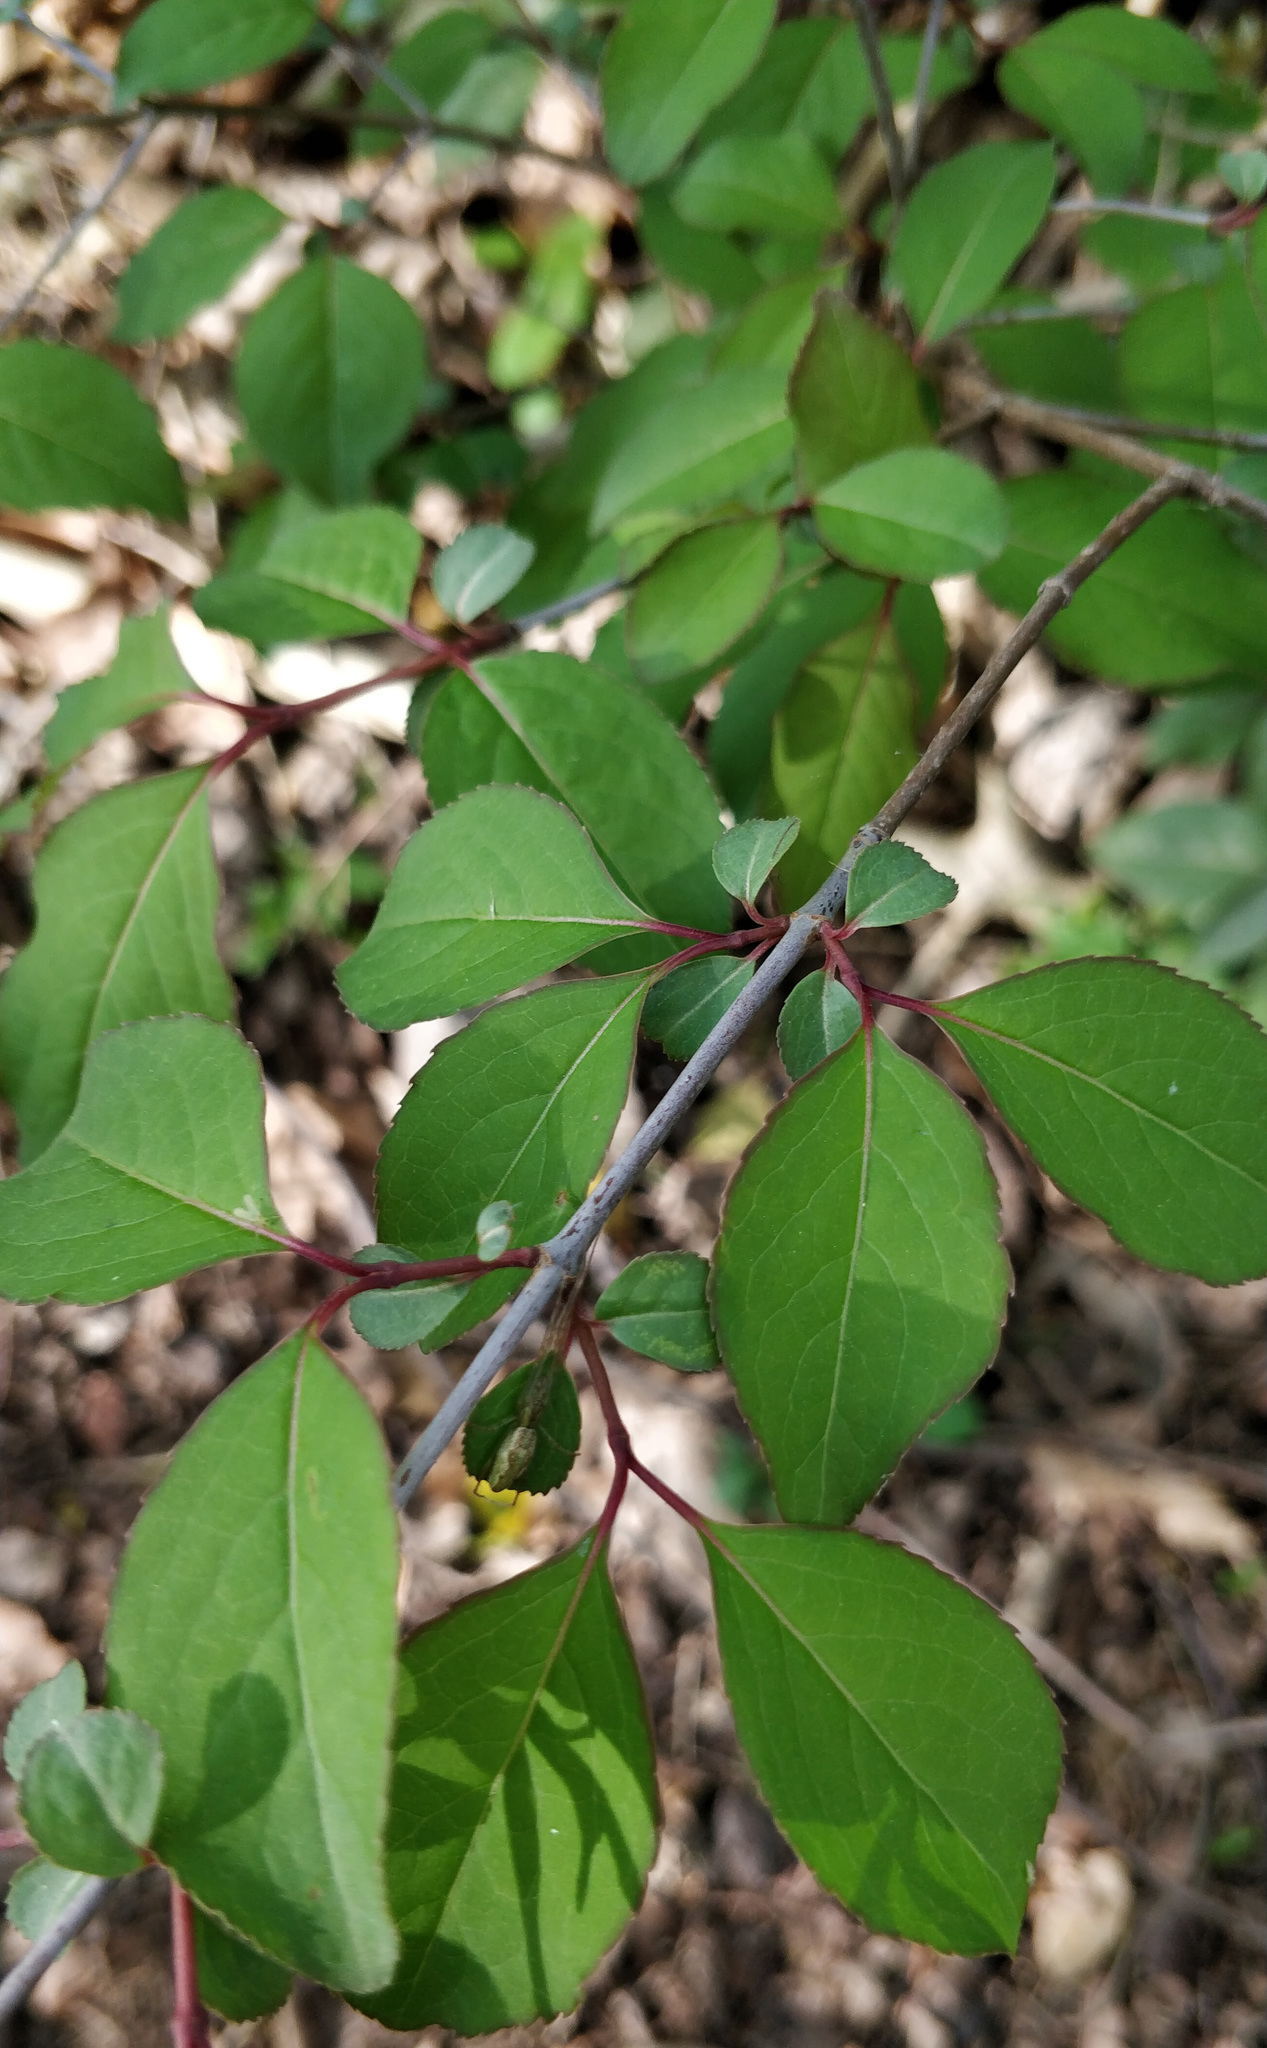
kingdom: Plantae
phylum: Tracheophyta
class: Magnoliopsida
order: Dipsacales
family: Viburnaceae
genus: Viburnum
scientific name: Viburnum prunifolium
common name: Black haw
